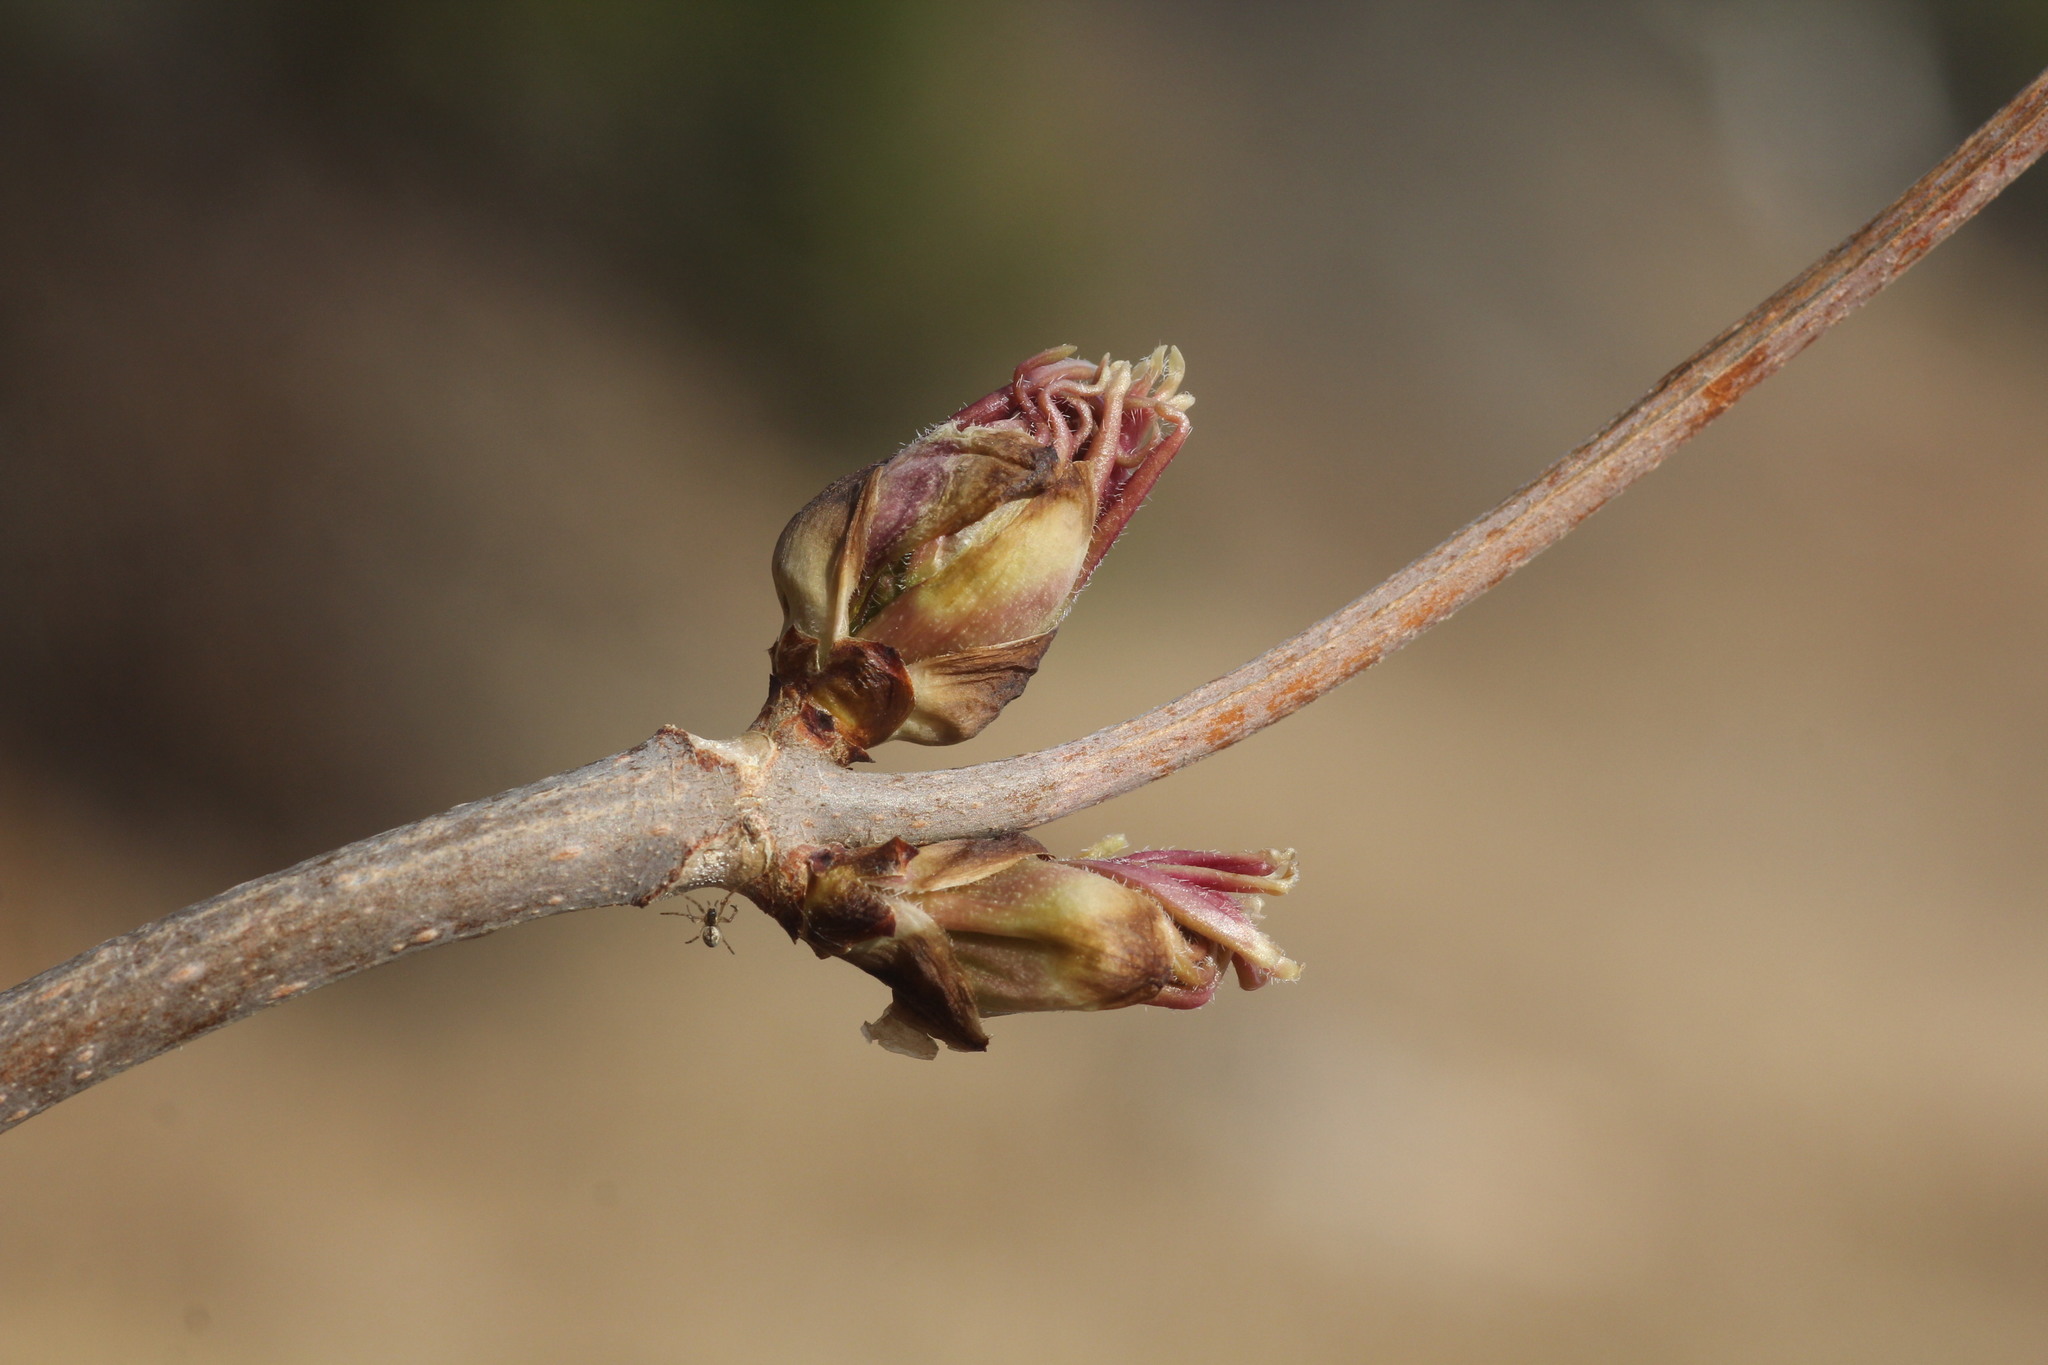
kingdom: Plantae
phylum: Tracheophyta
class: Magnoliopsida
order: Dipsacales
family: Viburnaceae
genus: Sambucus
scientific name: Sambucus racemosa
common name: Red-berried elder
